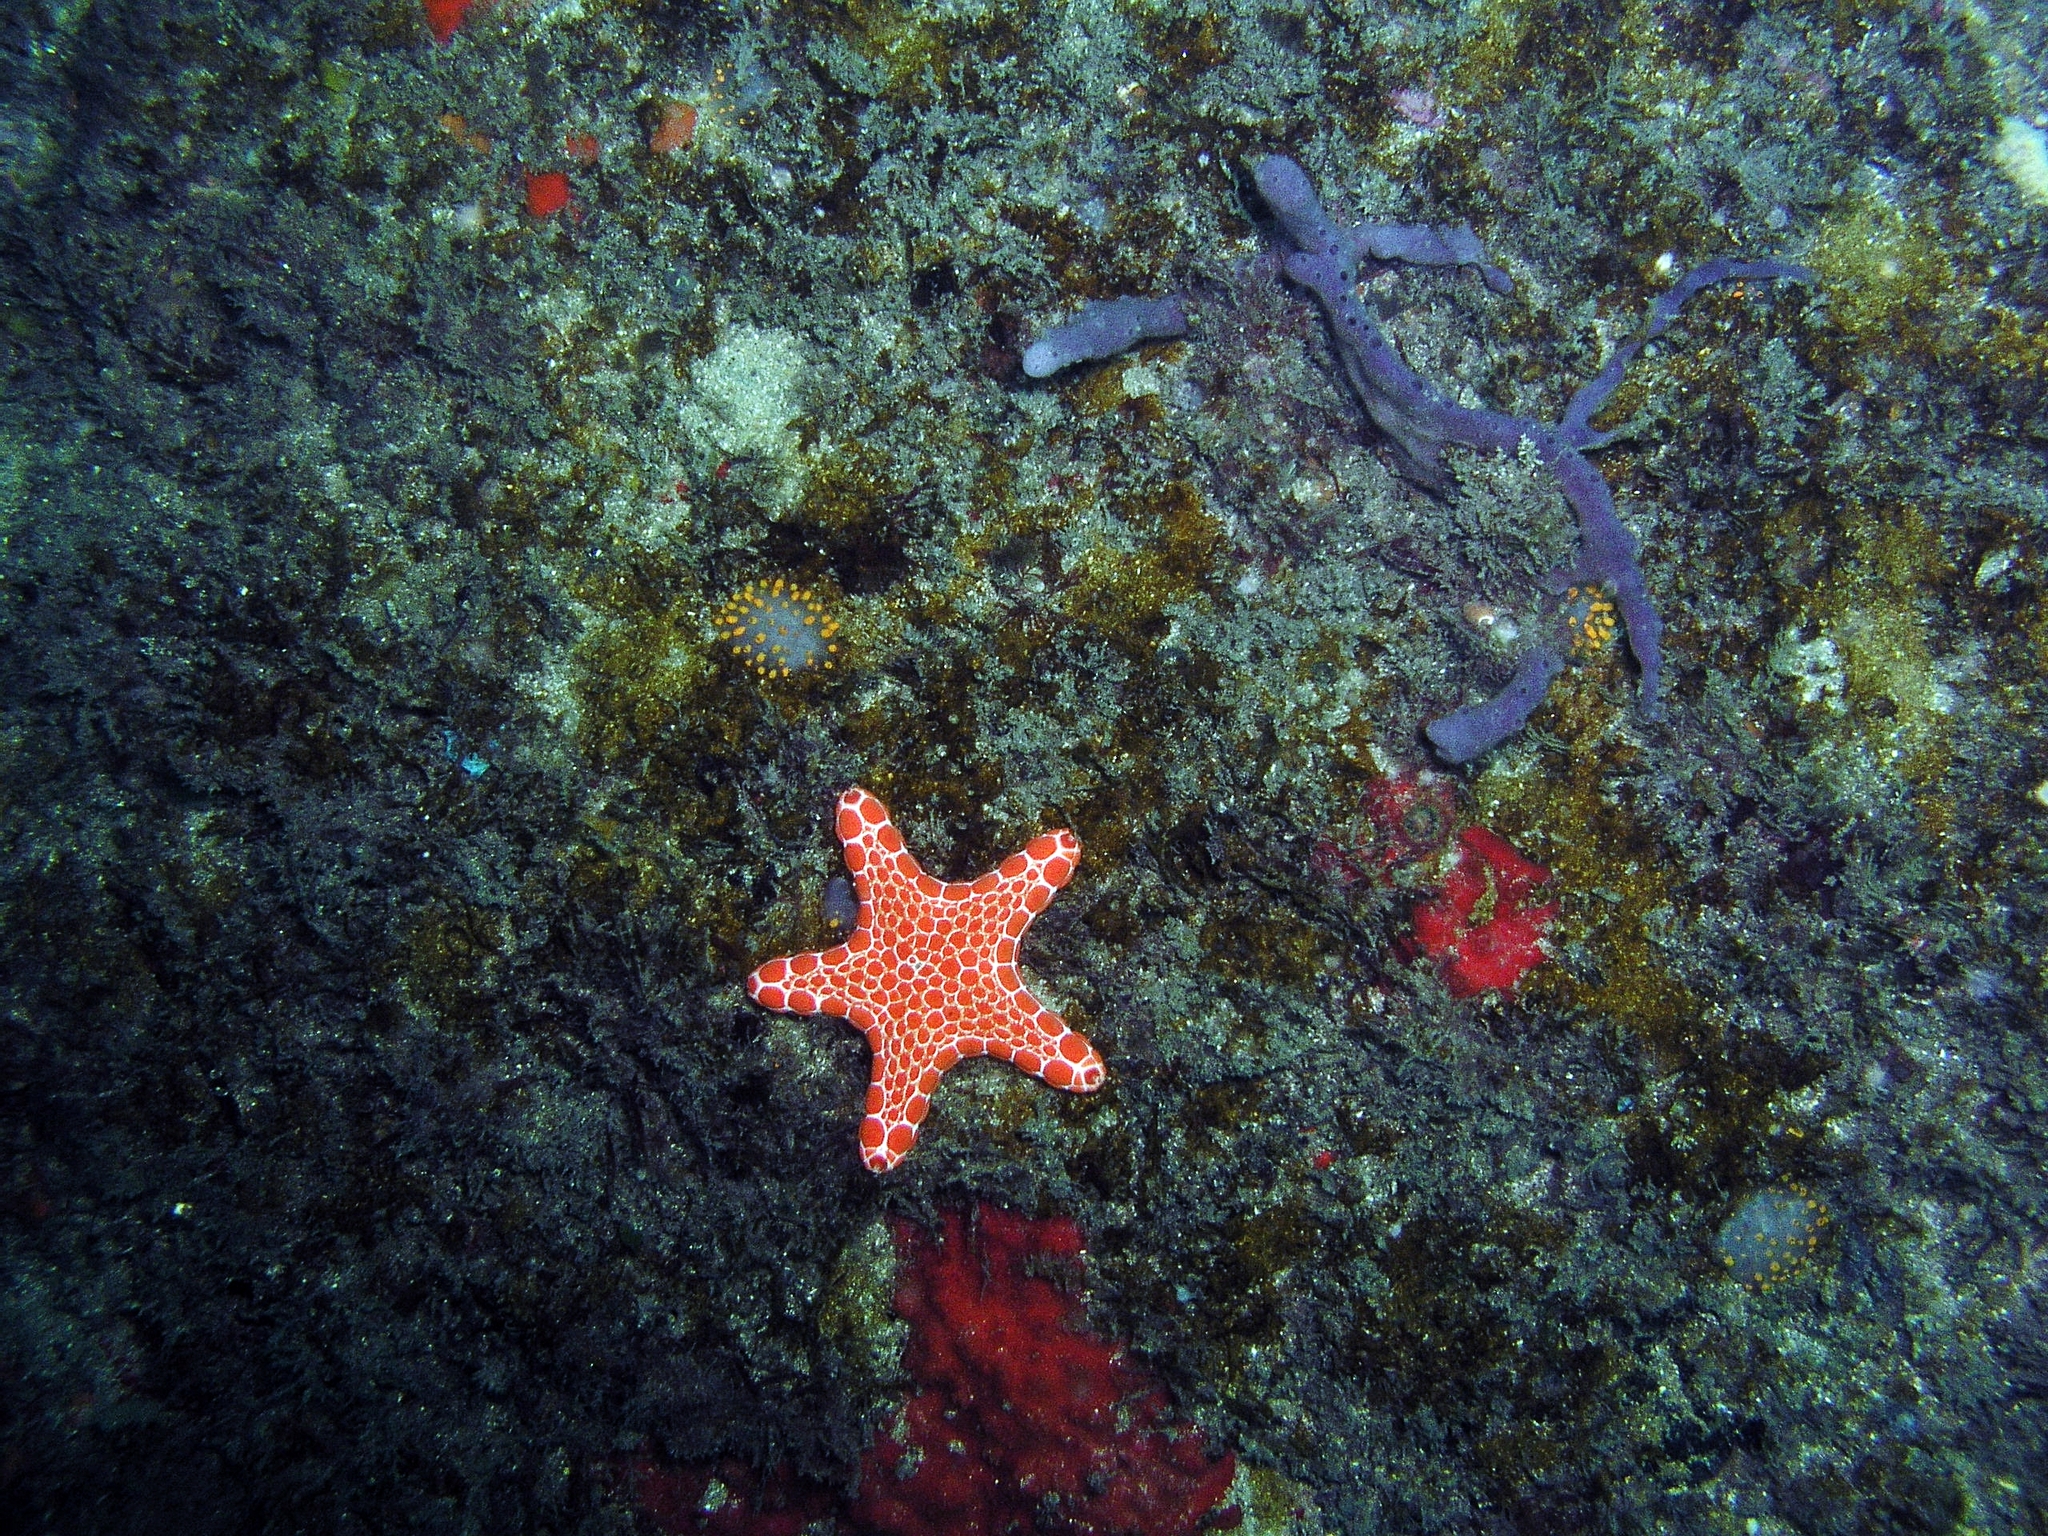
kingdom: Animalia
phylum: Echinodermata
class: Asteroidea
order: Valvatida
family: Goniasteridae
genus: Pentagonaster
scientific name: Pentagonaster duebeni
